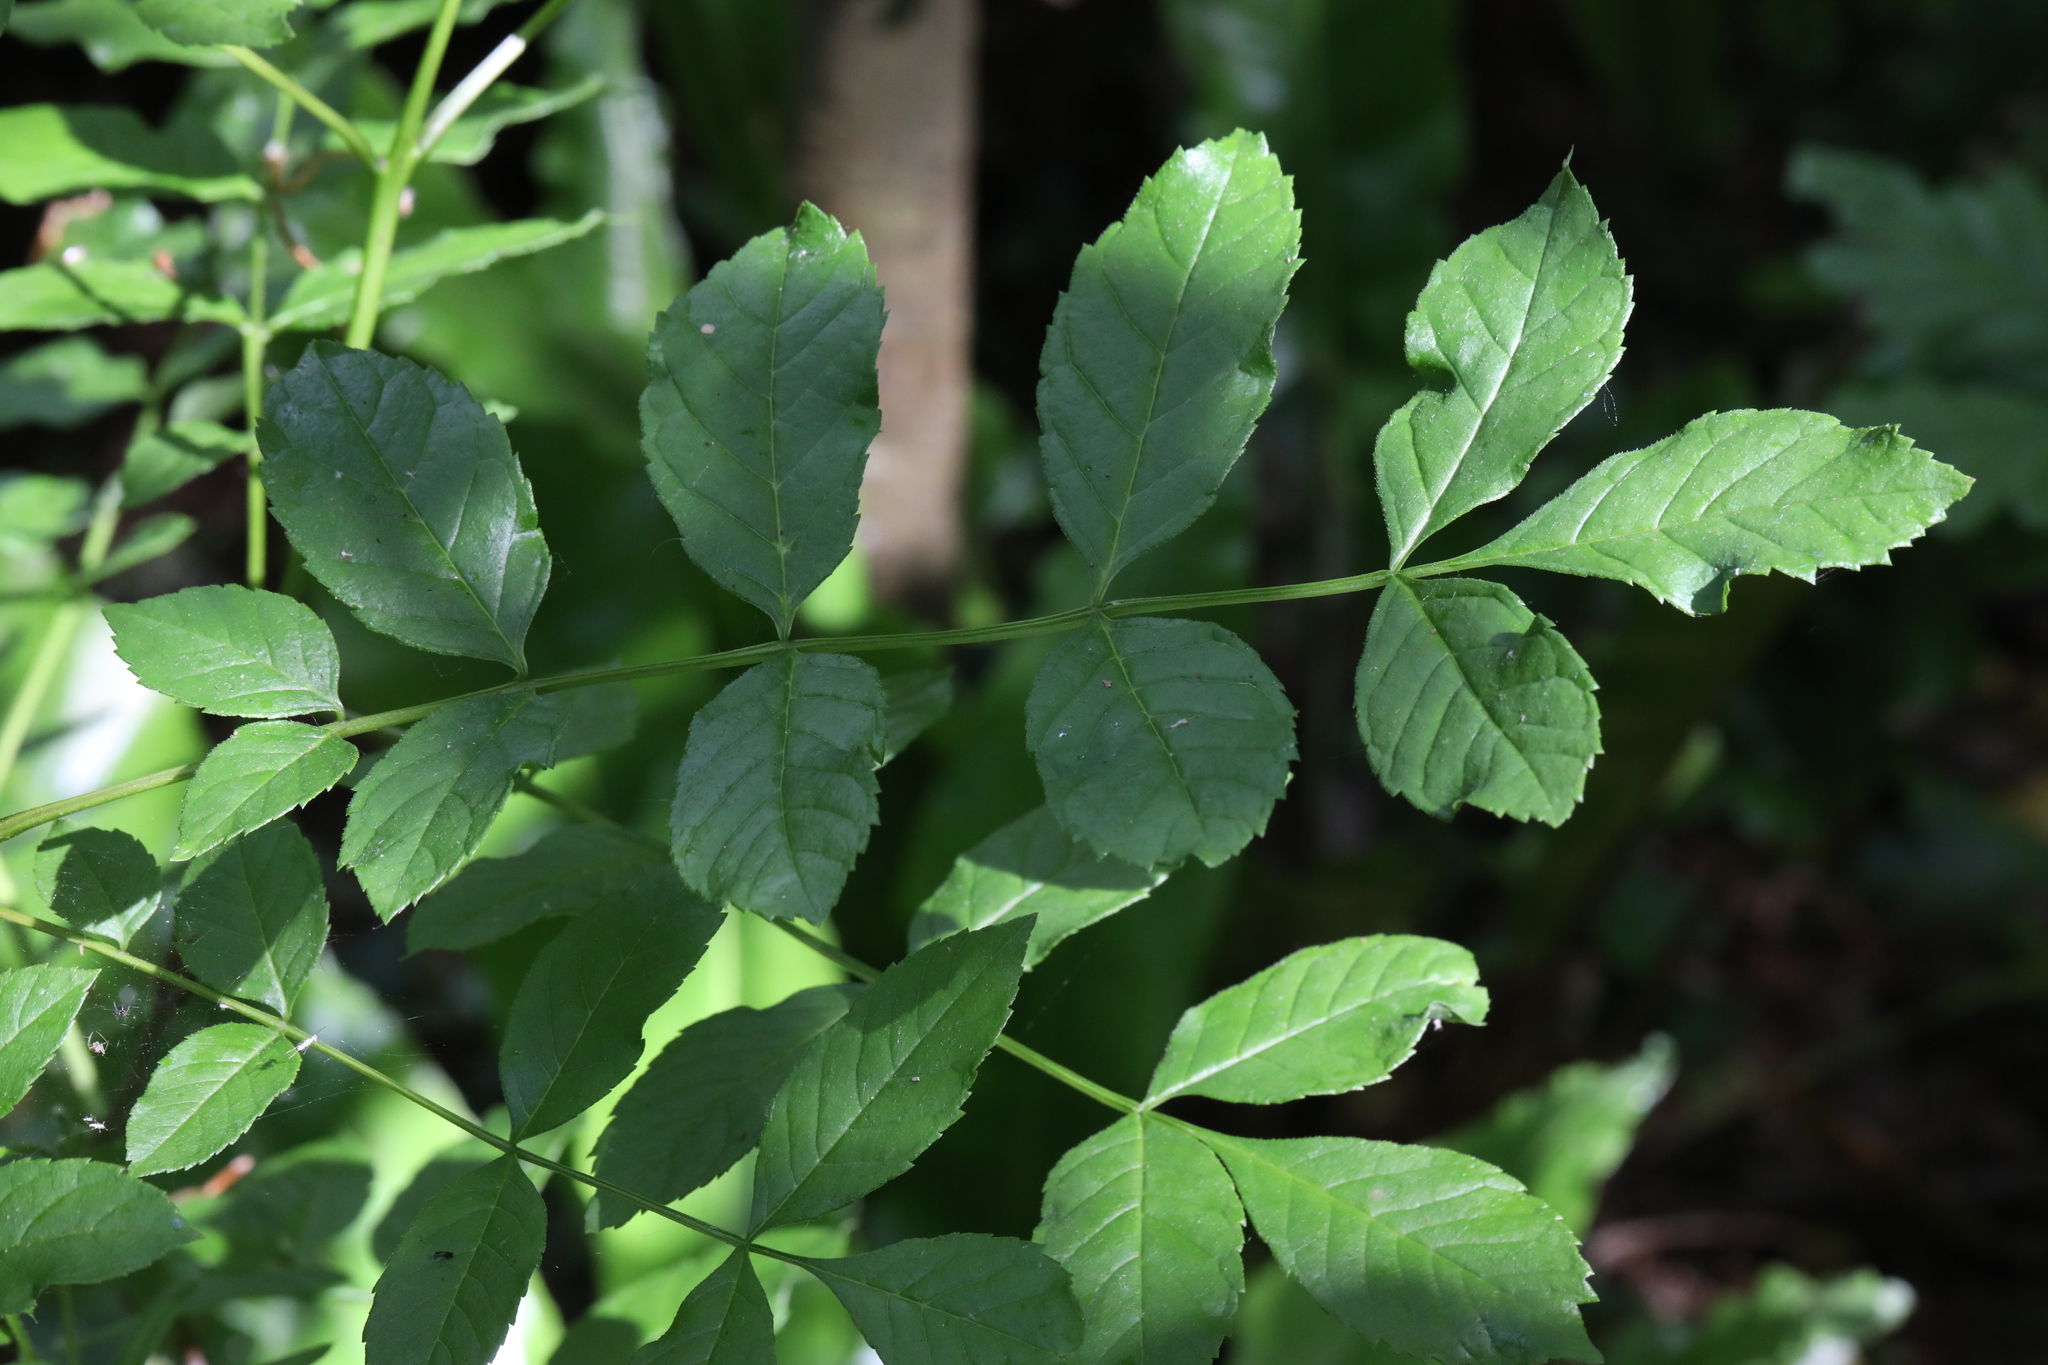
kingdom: Plantae
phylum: Tracheophyta
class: Magnoliopsida
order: Lamiales
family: Oleaceae
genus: Fraxinus
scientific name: Fraxinus excelsior
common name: European ash
